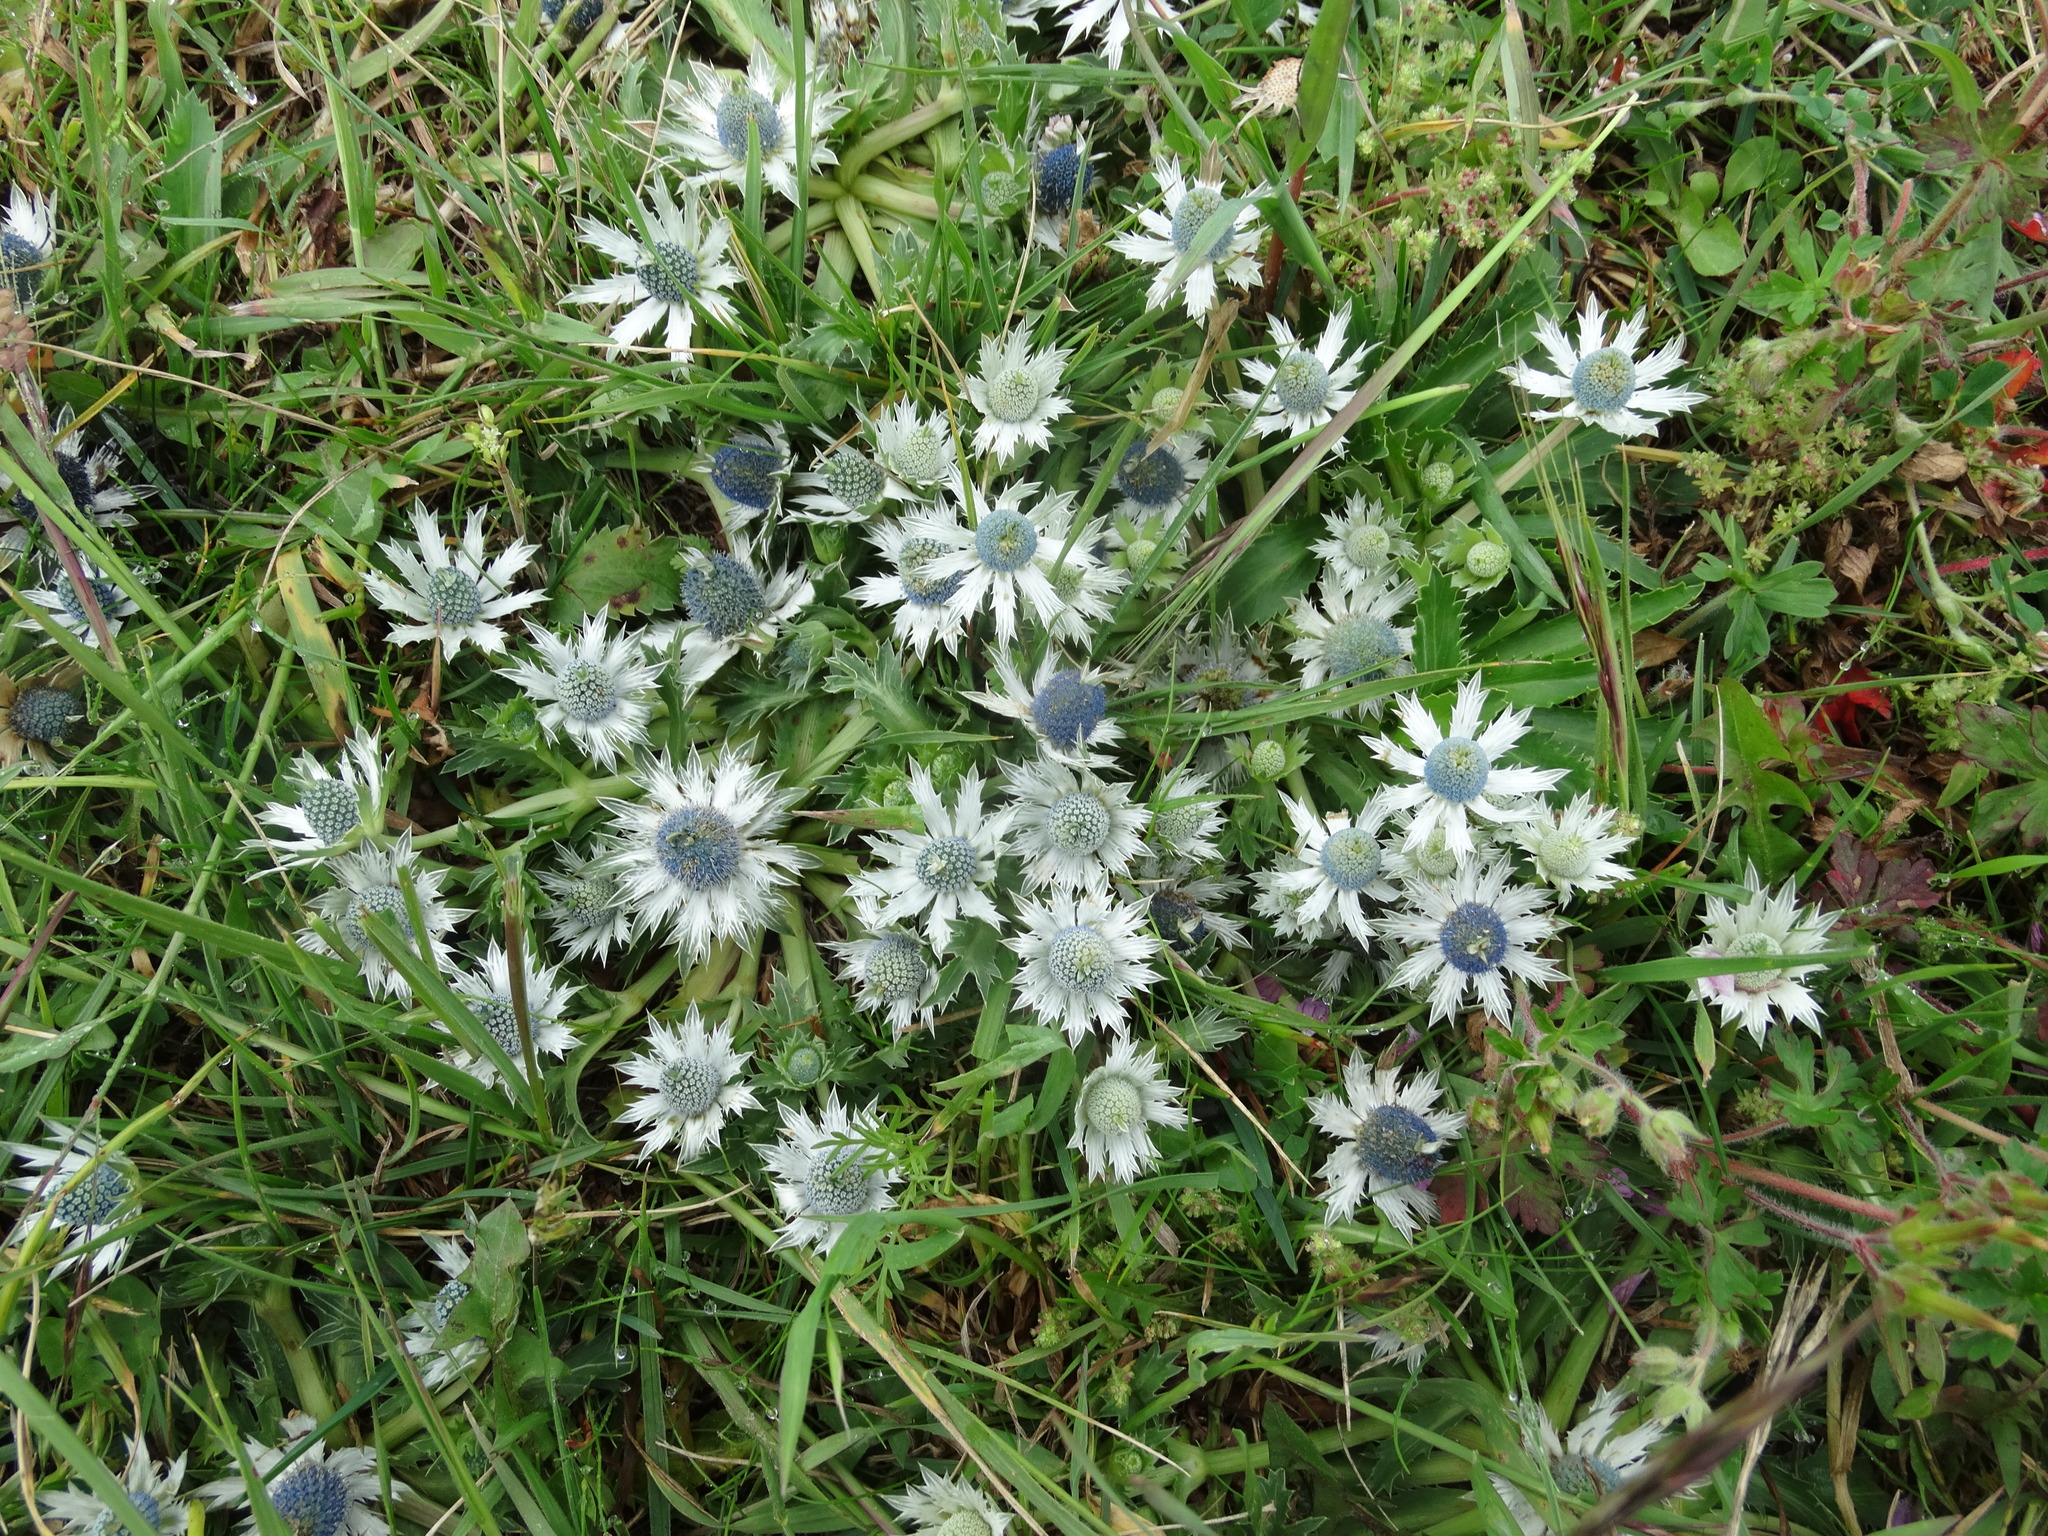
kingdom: Plantae
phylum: Tracheophyta
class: Magnoliopsida
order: Apiales
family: Apiaceae
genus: Eryngium
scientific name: Eryngium carlinae
